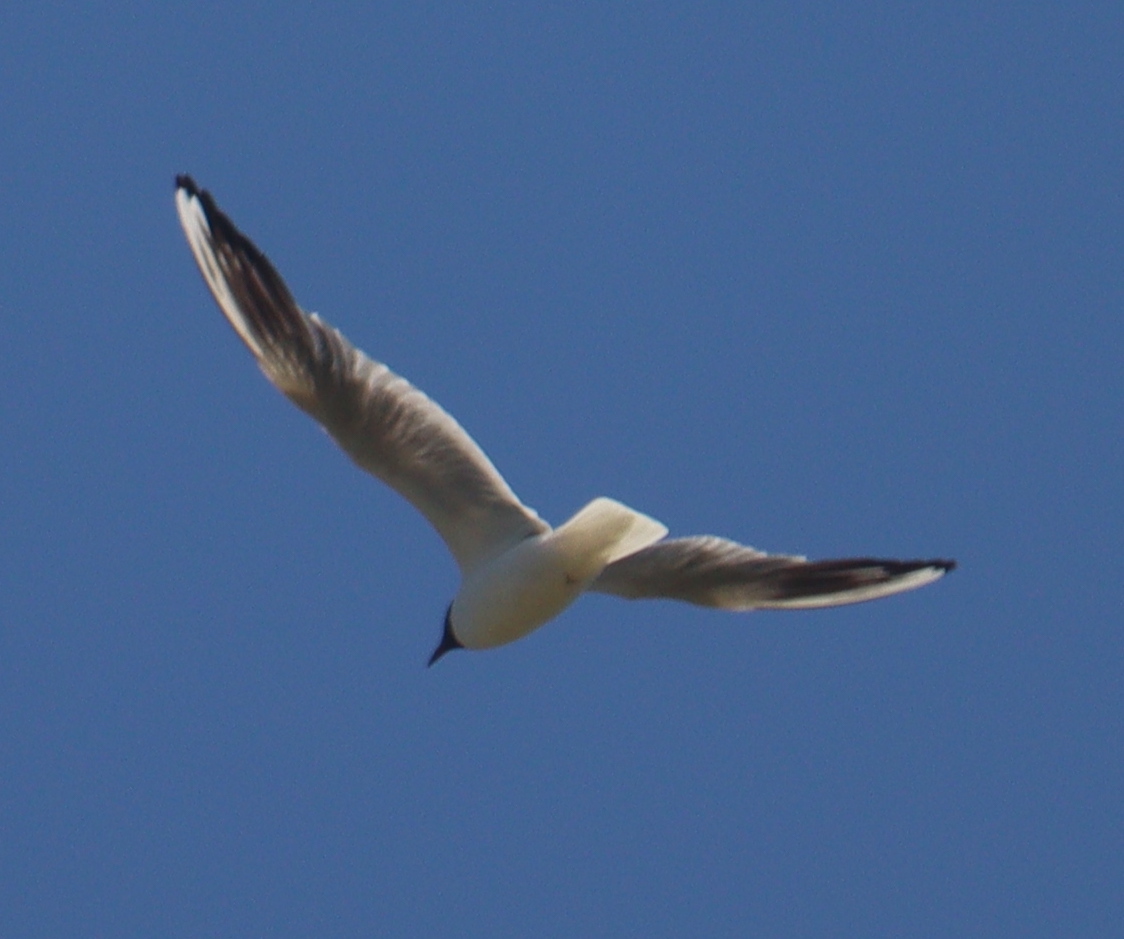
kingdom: Animalia
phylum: Chordata
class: Aves
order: Charadriiformes
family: Laridae
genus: Chroicocephalus
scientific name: Chroicocephalus ridibundus
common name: Black-headed gull
